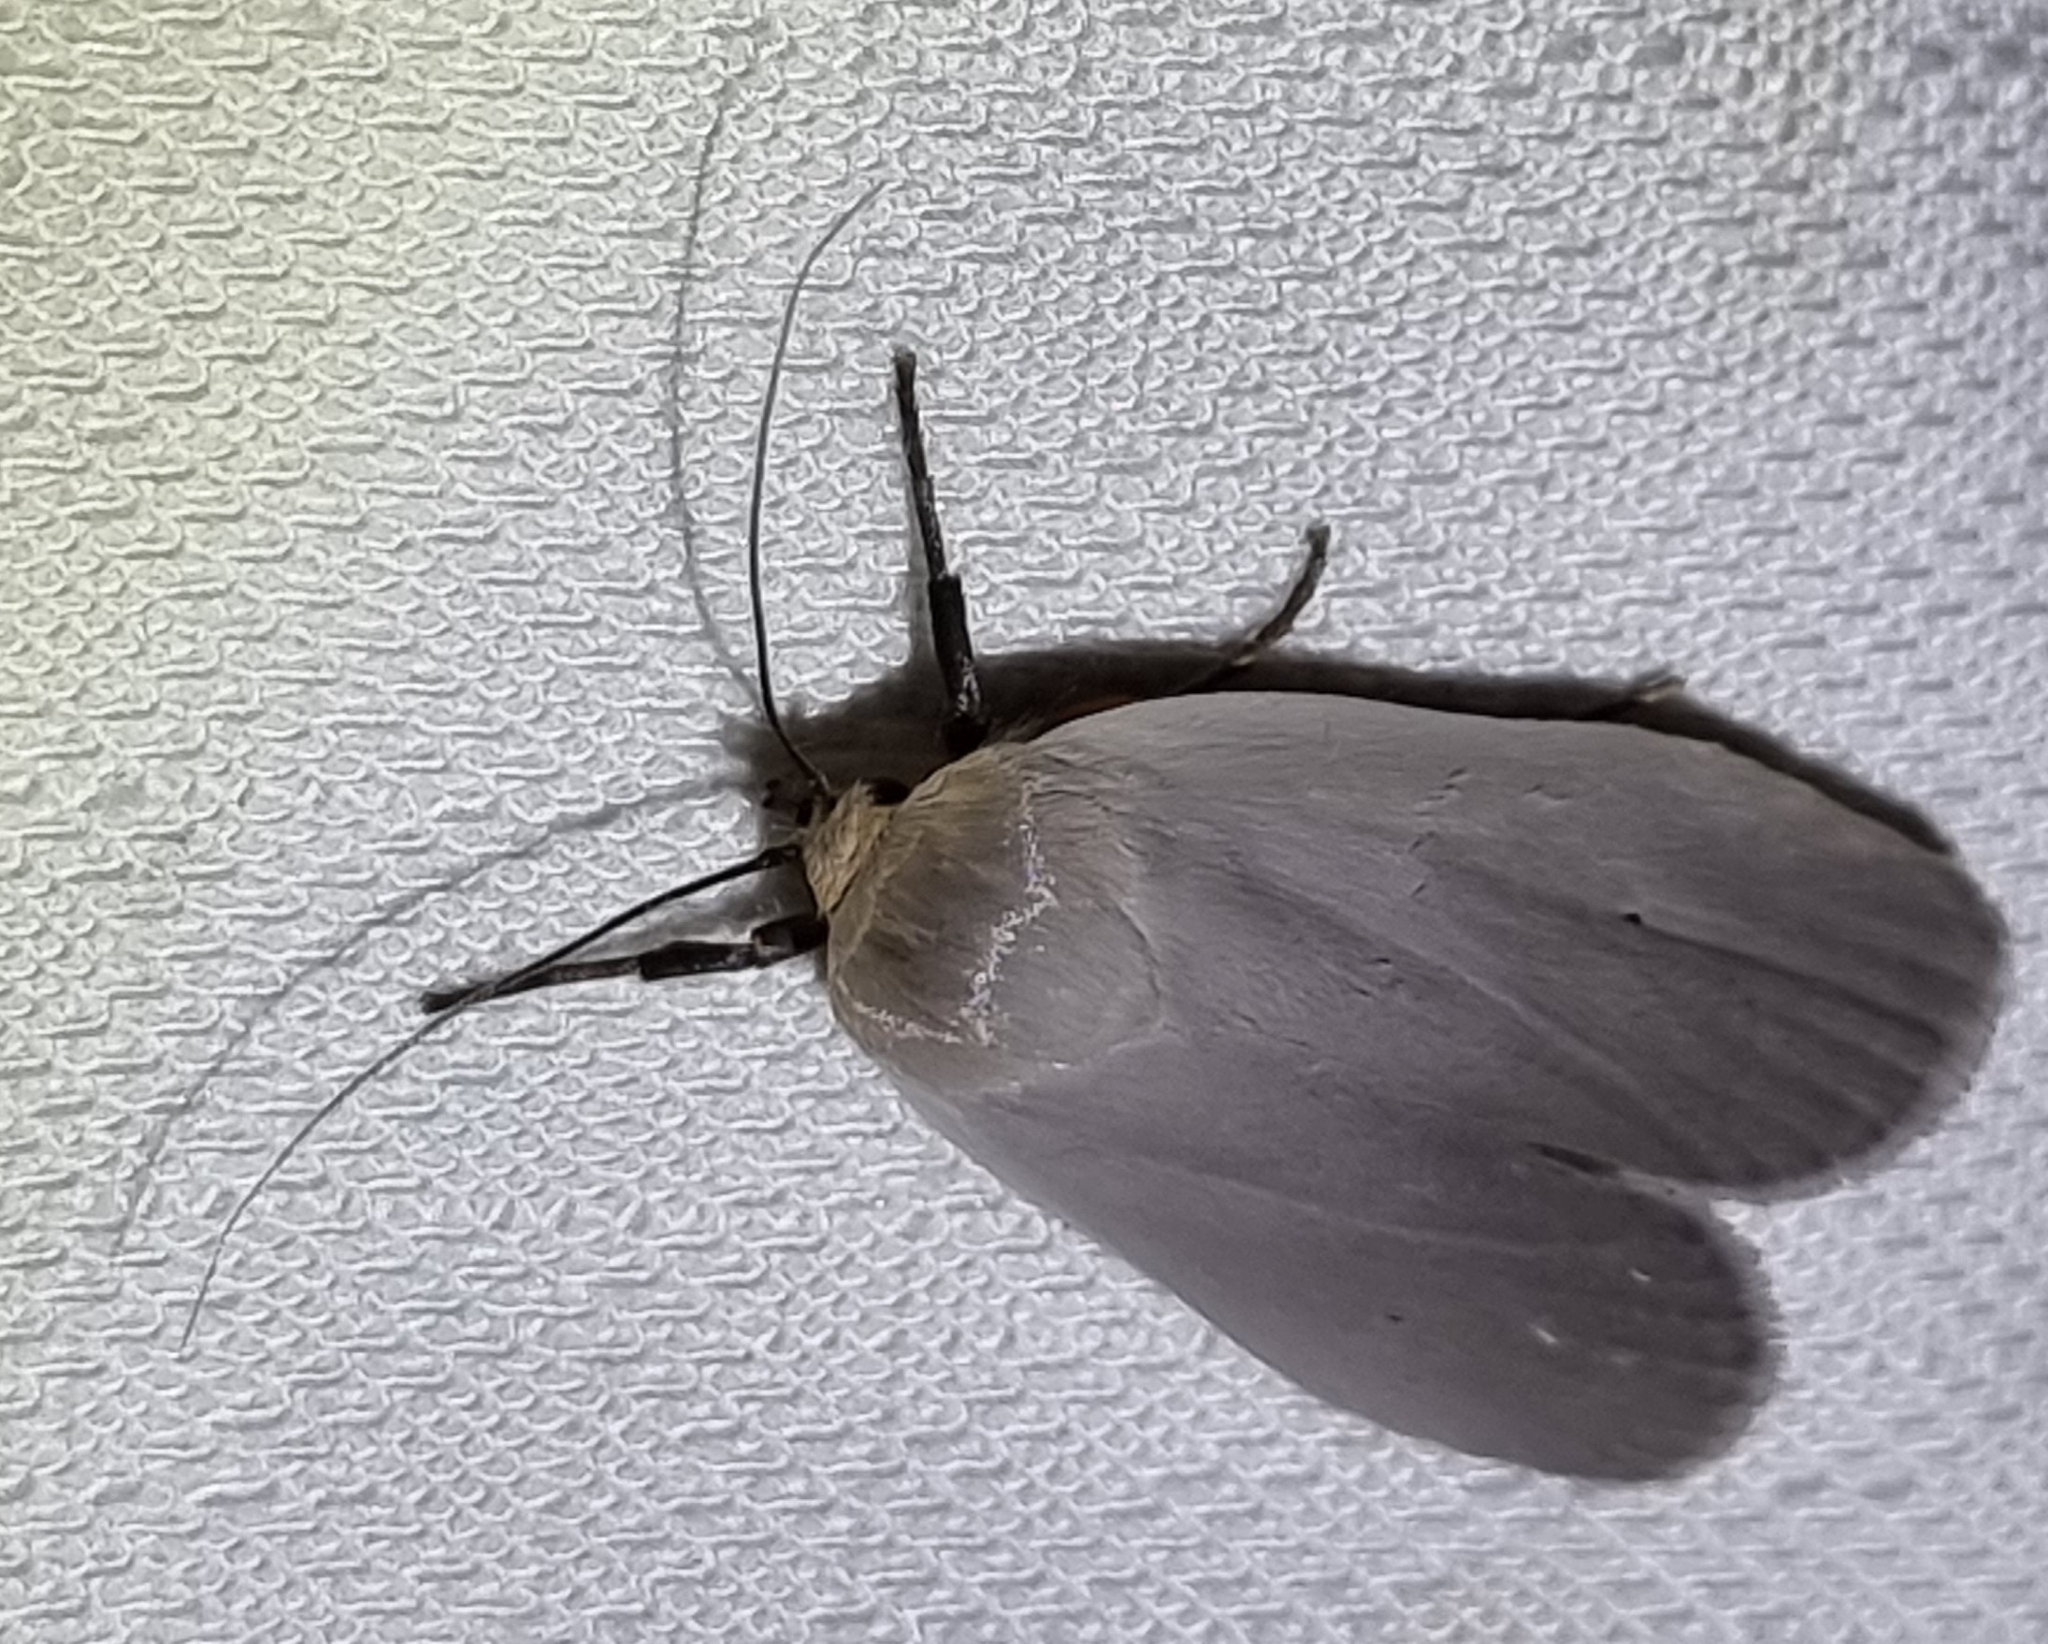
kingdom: Animalia
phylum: Arthropoda
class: Insecta
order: Lepidoptera
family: Xyloryctidae
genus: Maroga
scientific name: Maroga melanostigma
